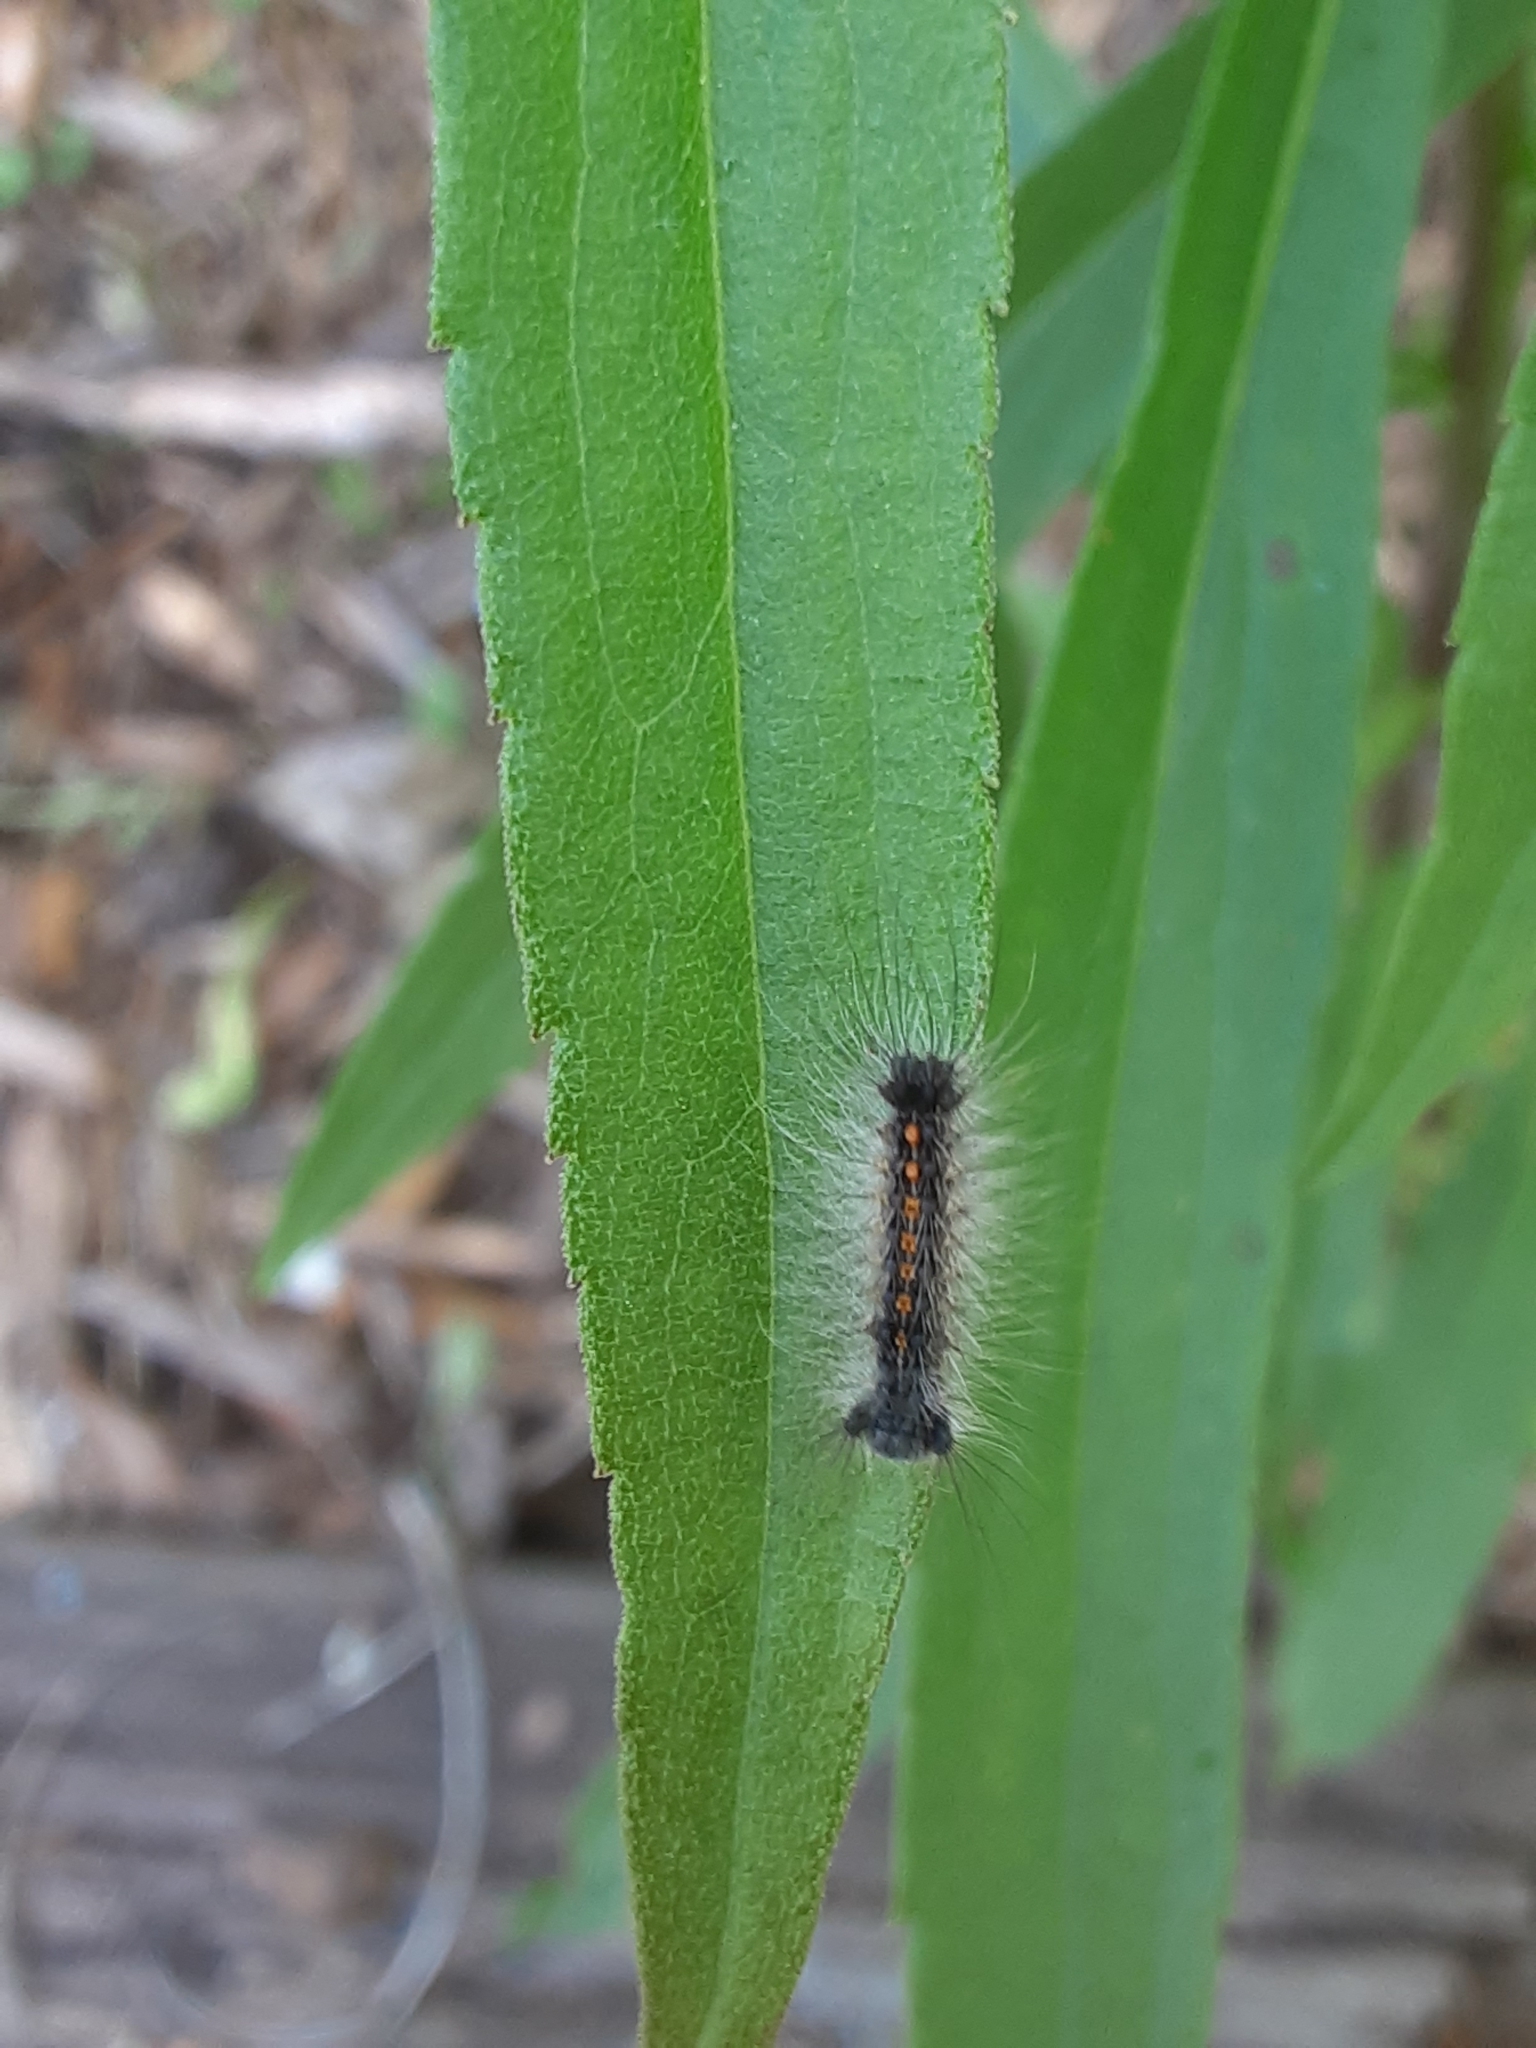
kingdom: Animalia
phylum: Arthropoda
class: Insecta
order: Lepidoptera
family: Erebidae
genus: Lymantria
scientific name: Lymantria dispar
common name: Gypsy moth
